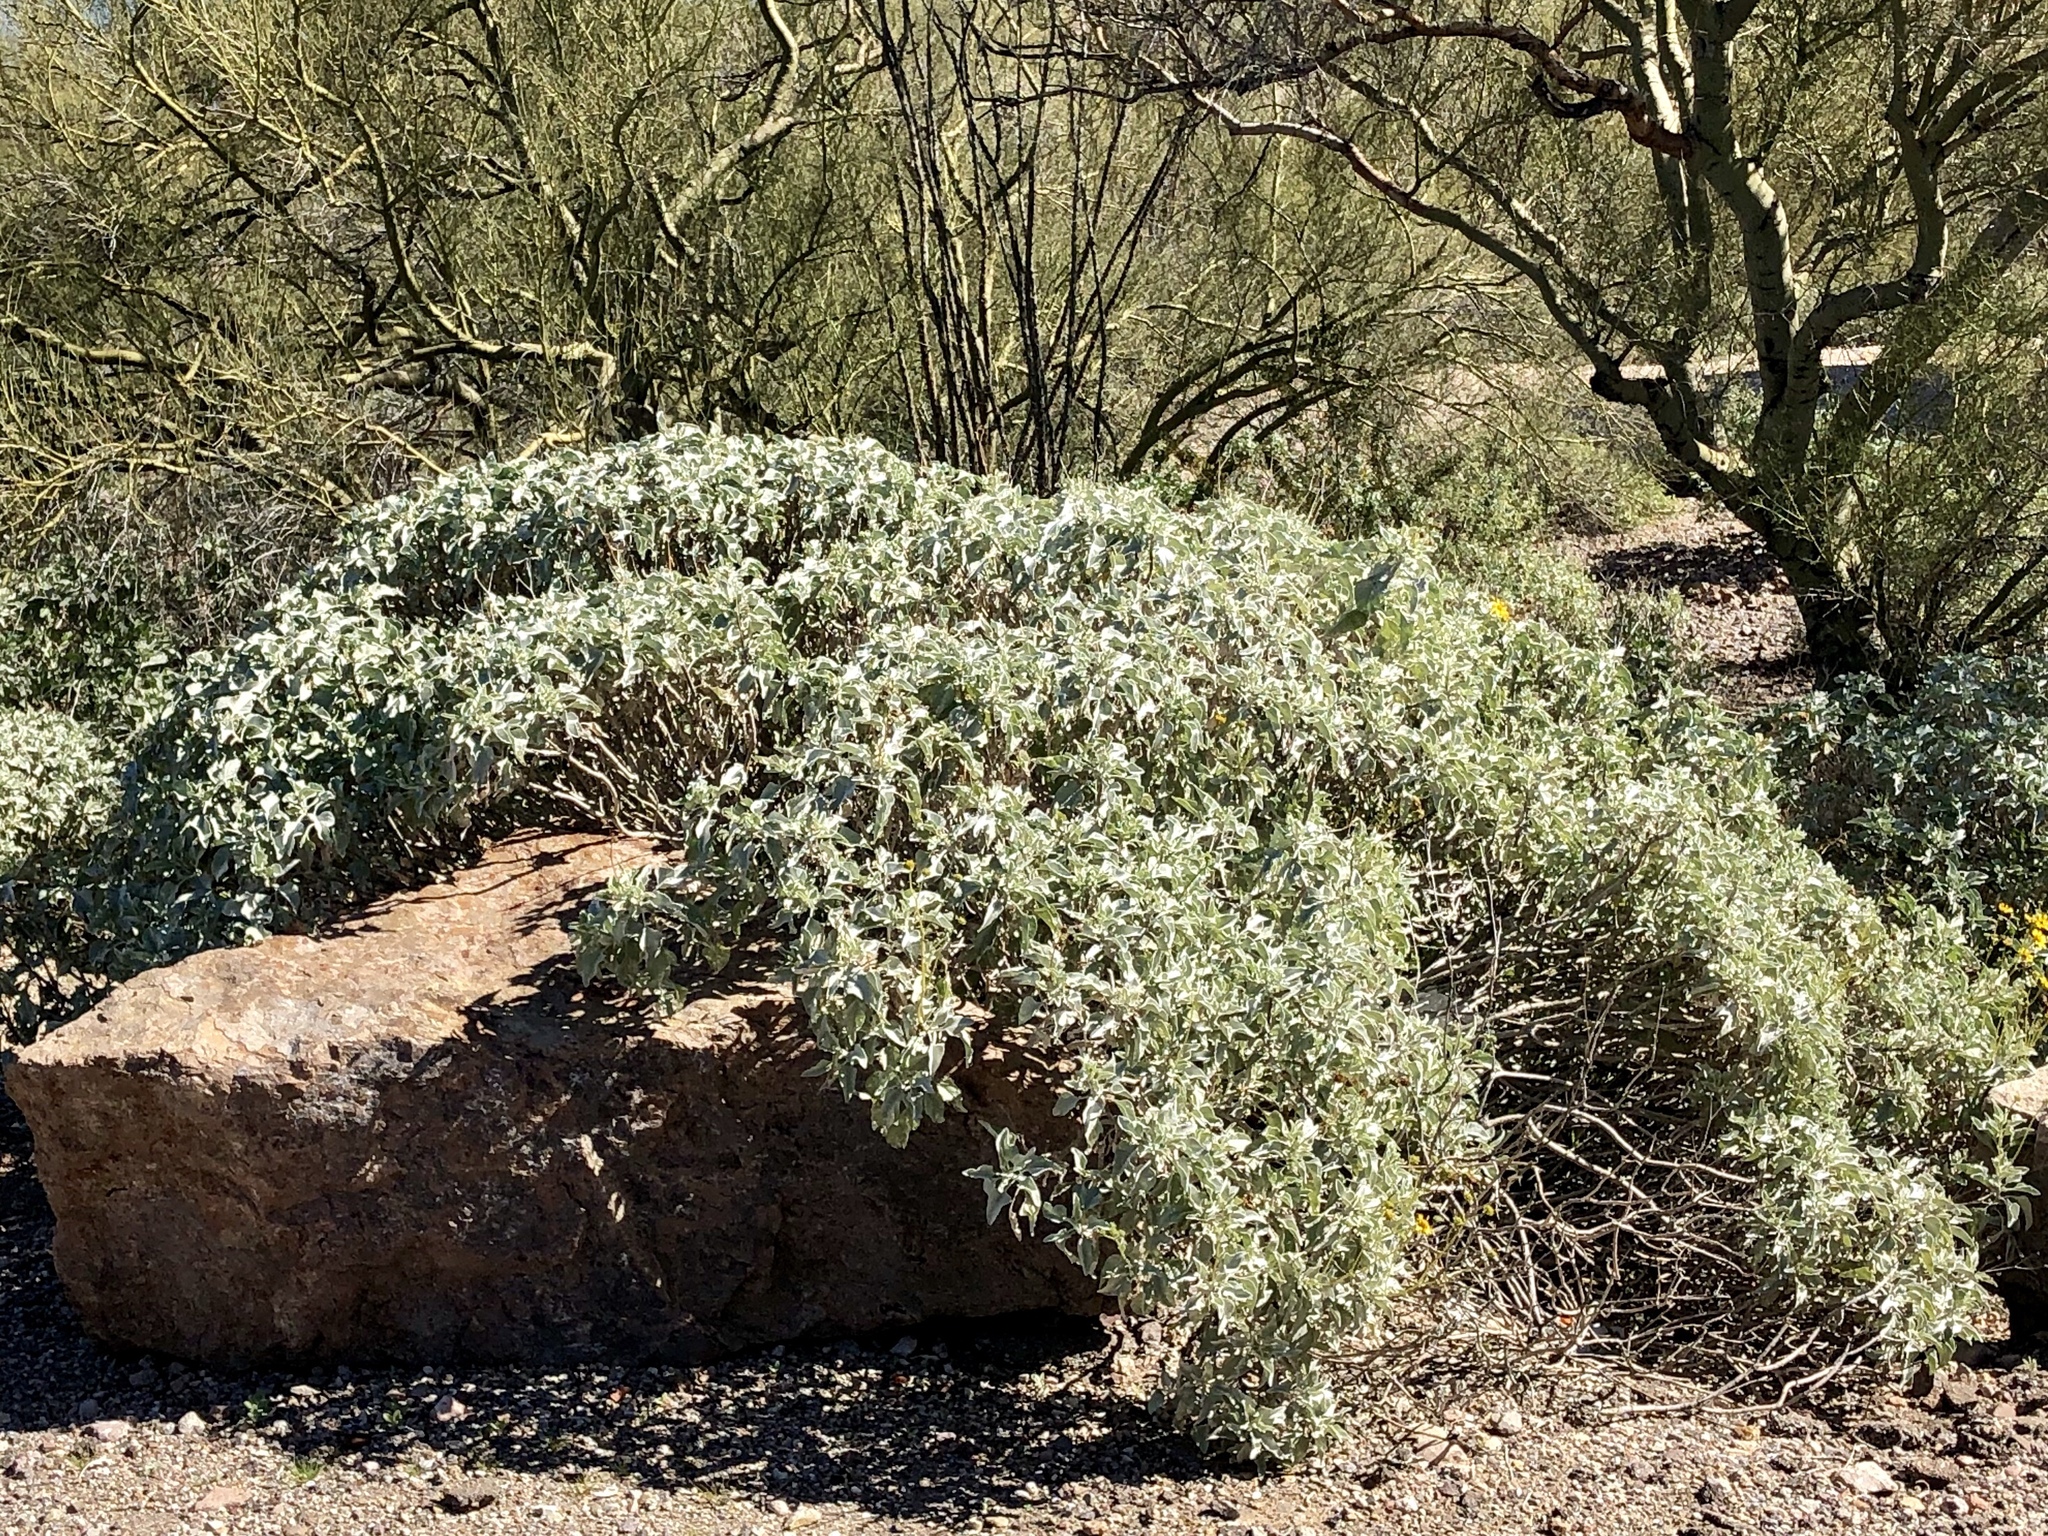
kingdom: Plantae
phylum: Tracheophyta
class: Magnoliopsida
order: Asterales
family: Asteraceae
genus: Encelia
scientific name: Encelia farinosa
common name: Brittlebush
